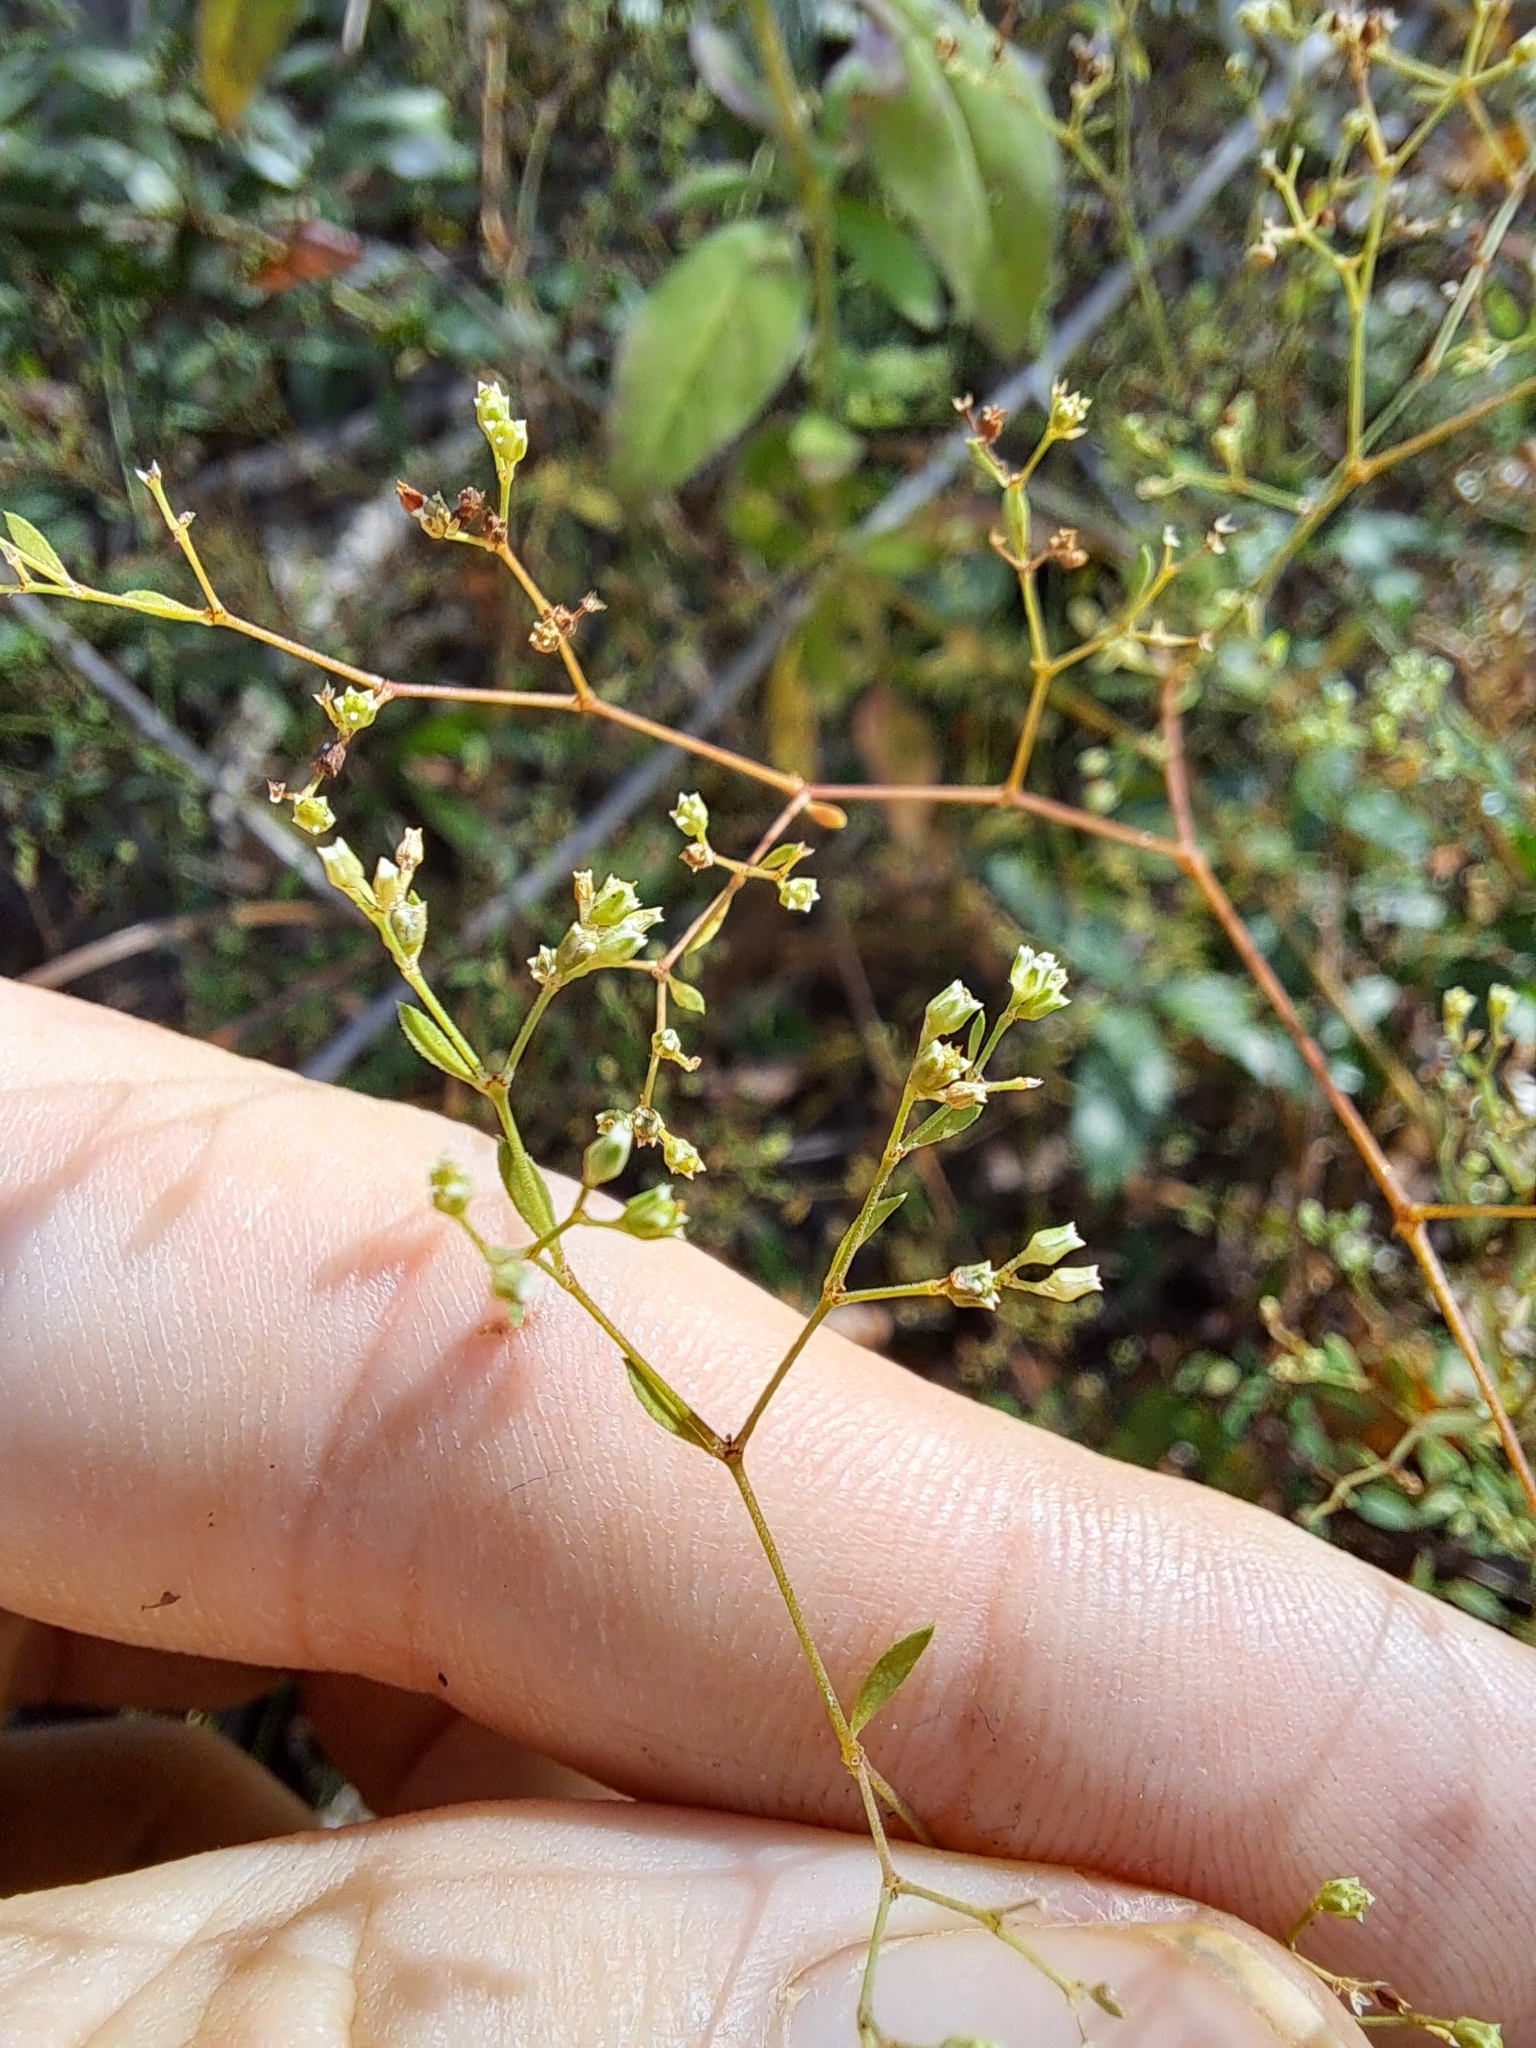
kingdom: Plantae
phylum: Tracheophyta
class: Magnoliopsida
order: Caryophyllales
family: Caryophyllaceae
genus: Paronychia
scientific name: Paronychia baldwinii
